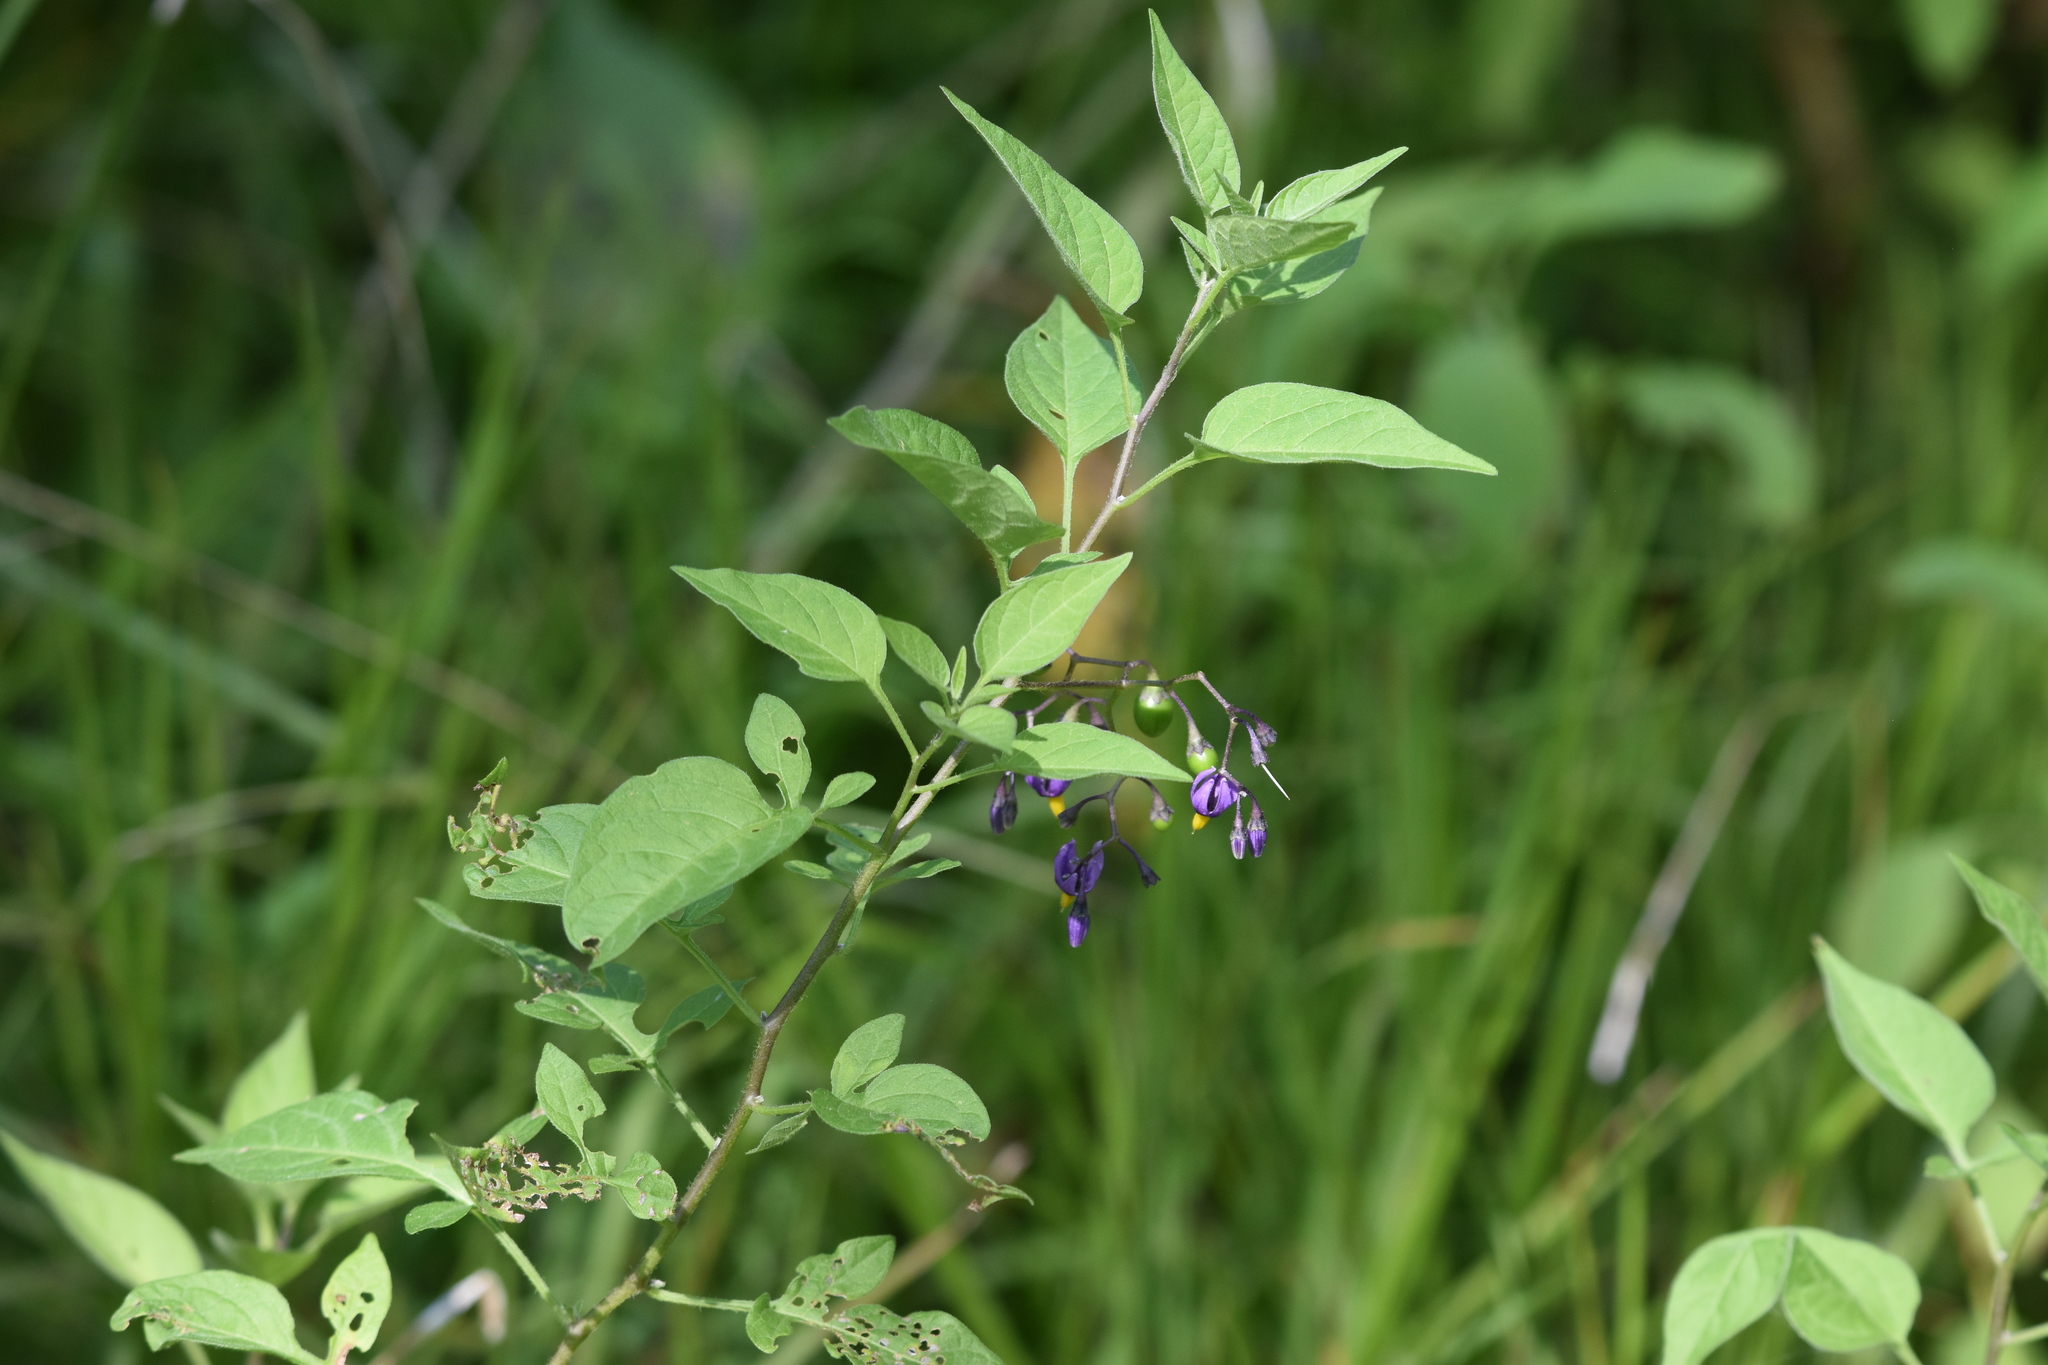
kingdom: Plantae
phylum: Tracheophyta
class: Magnoliopsida
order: Solanales
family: Solanaceae
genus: Solanum
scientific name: Solanum dulcamara
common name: Climbing nightshade
